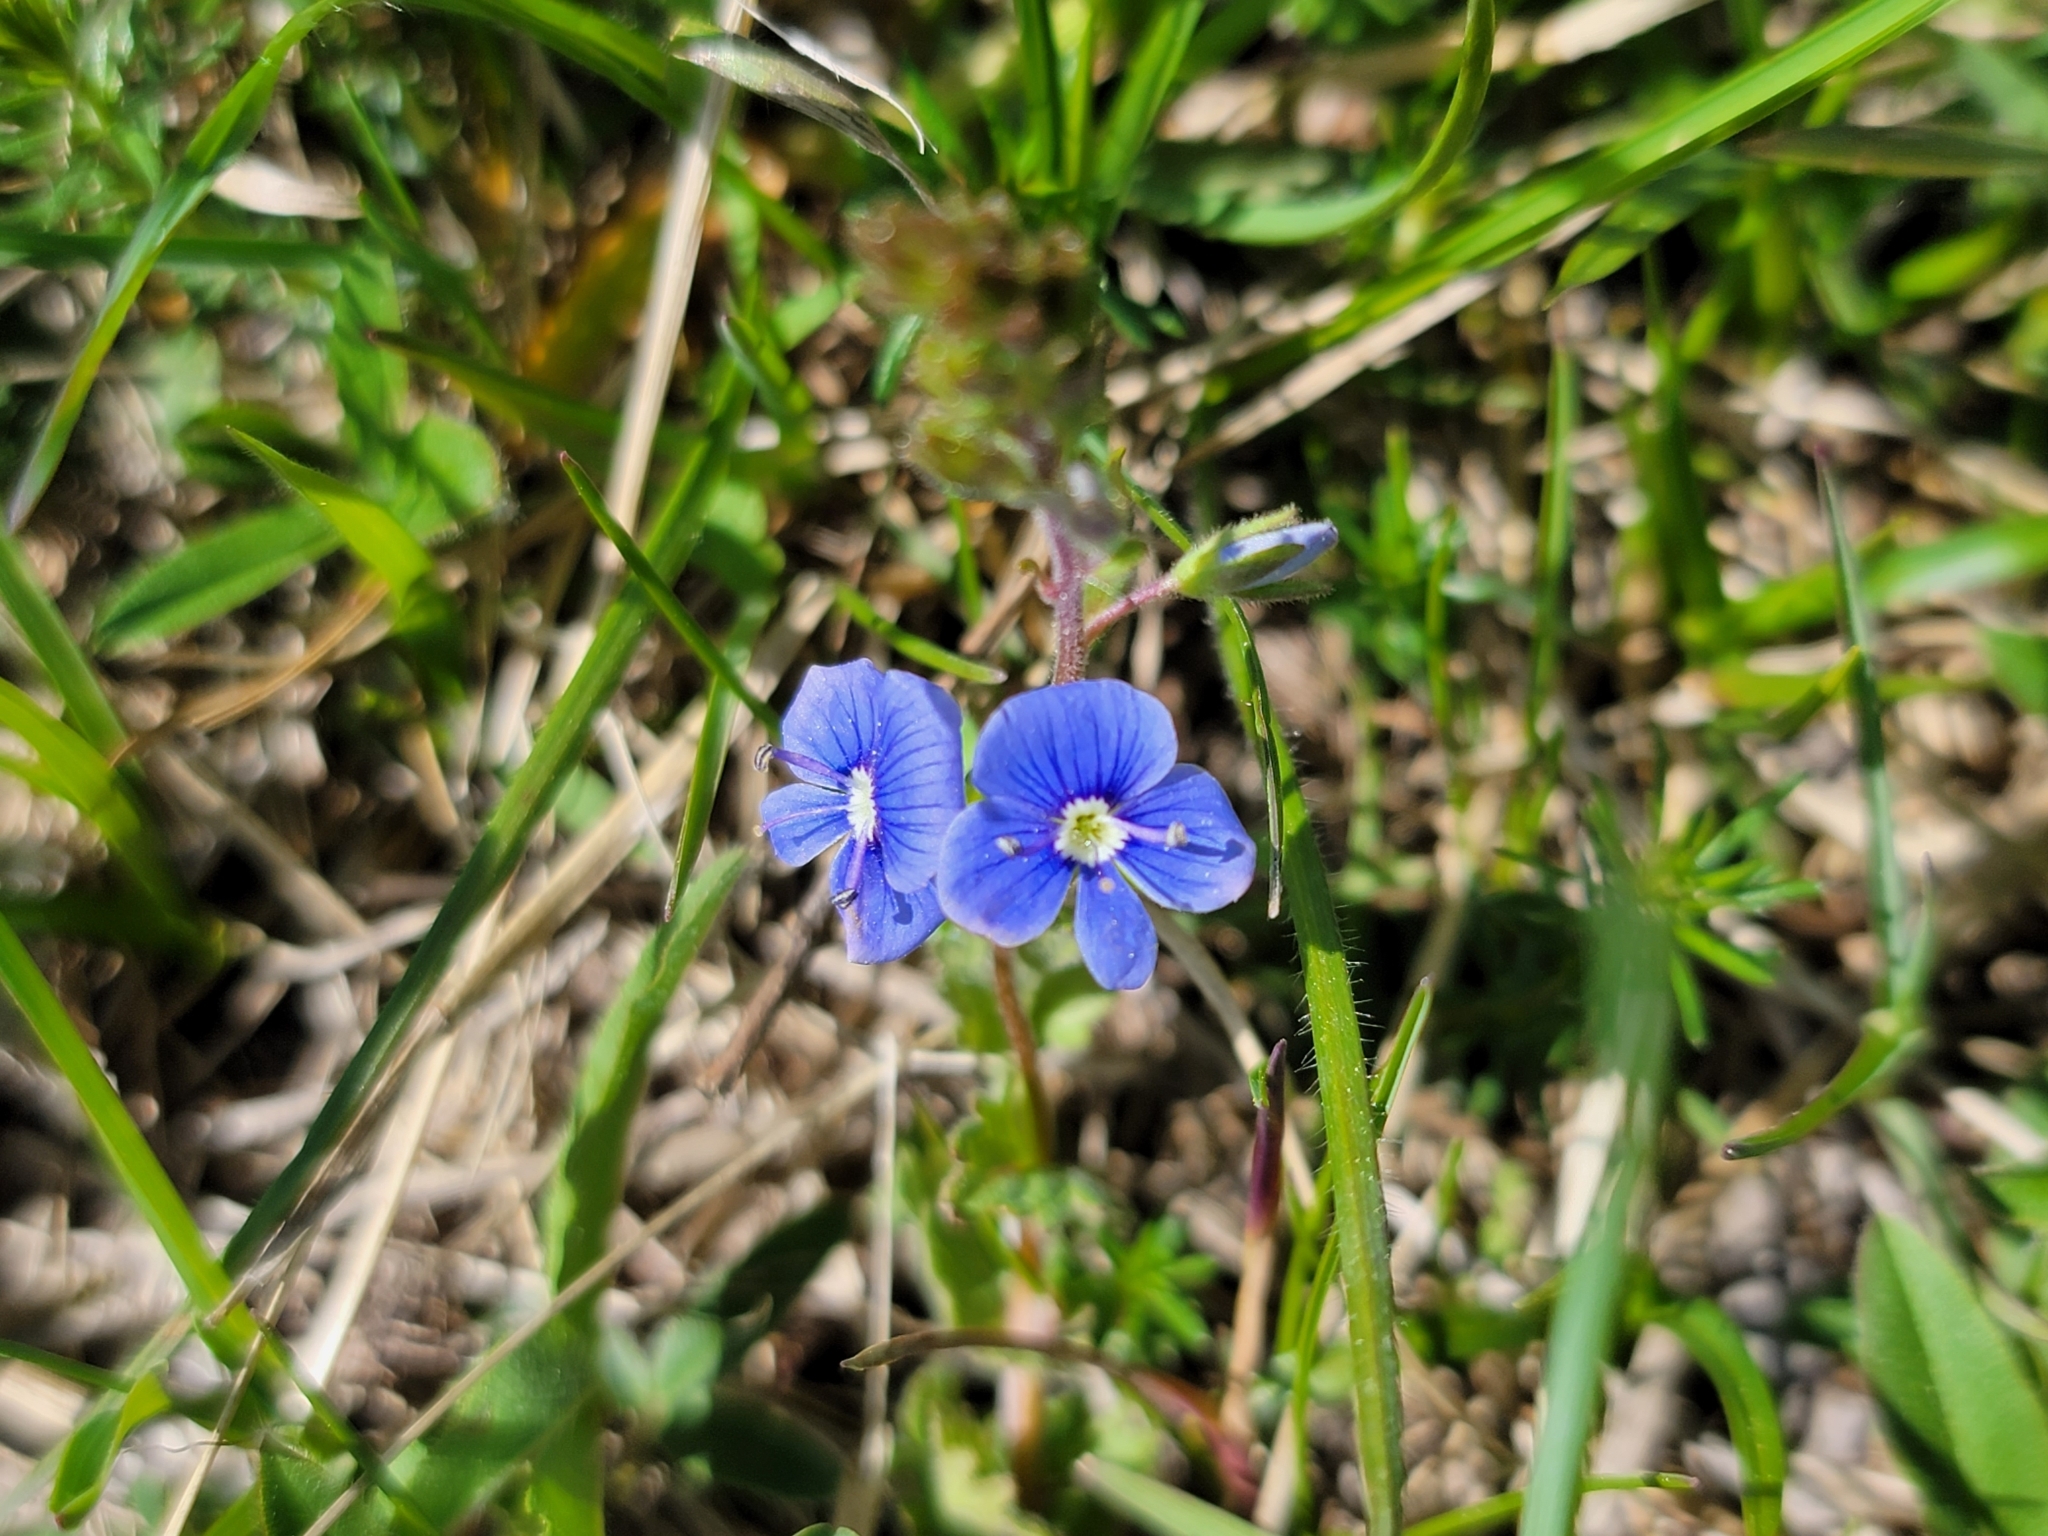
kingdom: Plantae
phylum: Tracheophyta
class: Magnoliopsida
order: Lamiales
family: Plantaginaceae
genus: Veronica
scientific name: Veronica chamaedrys
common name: Germander speedwell
